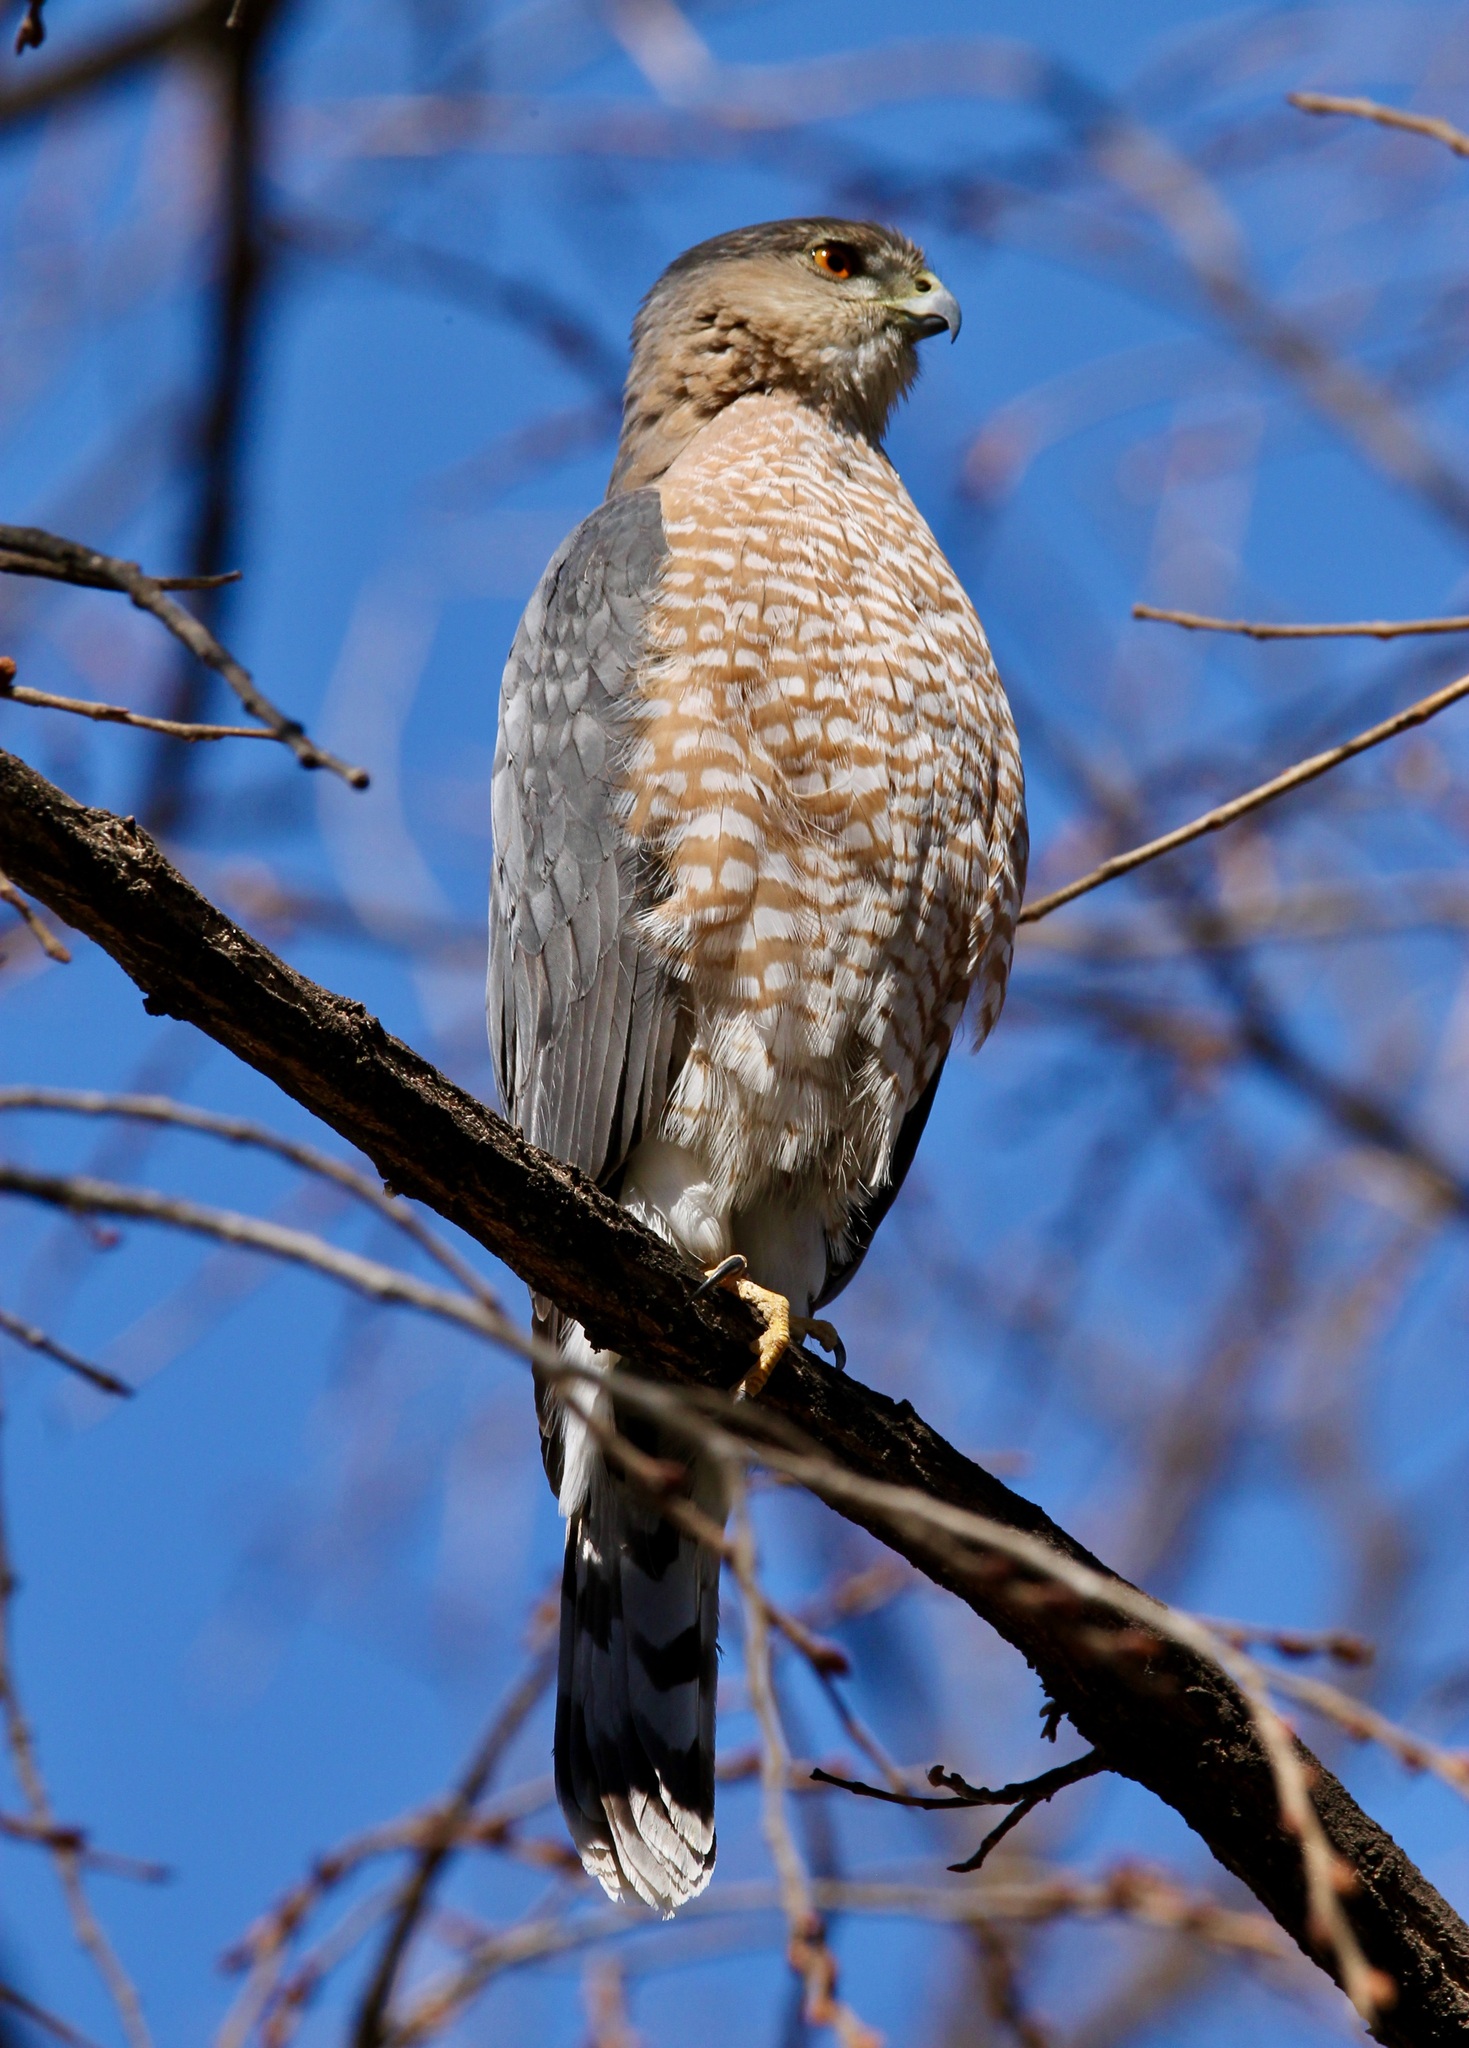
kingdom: Animalia
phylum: Chordata
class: Aves
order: Accipitriformes
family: Accipitridae
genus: Accipiter
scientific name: Accipiter cooperii
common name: Cooper's hawk
